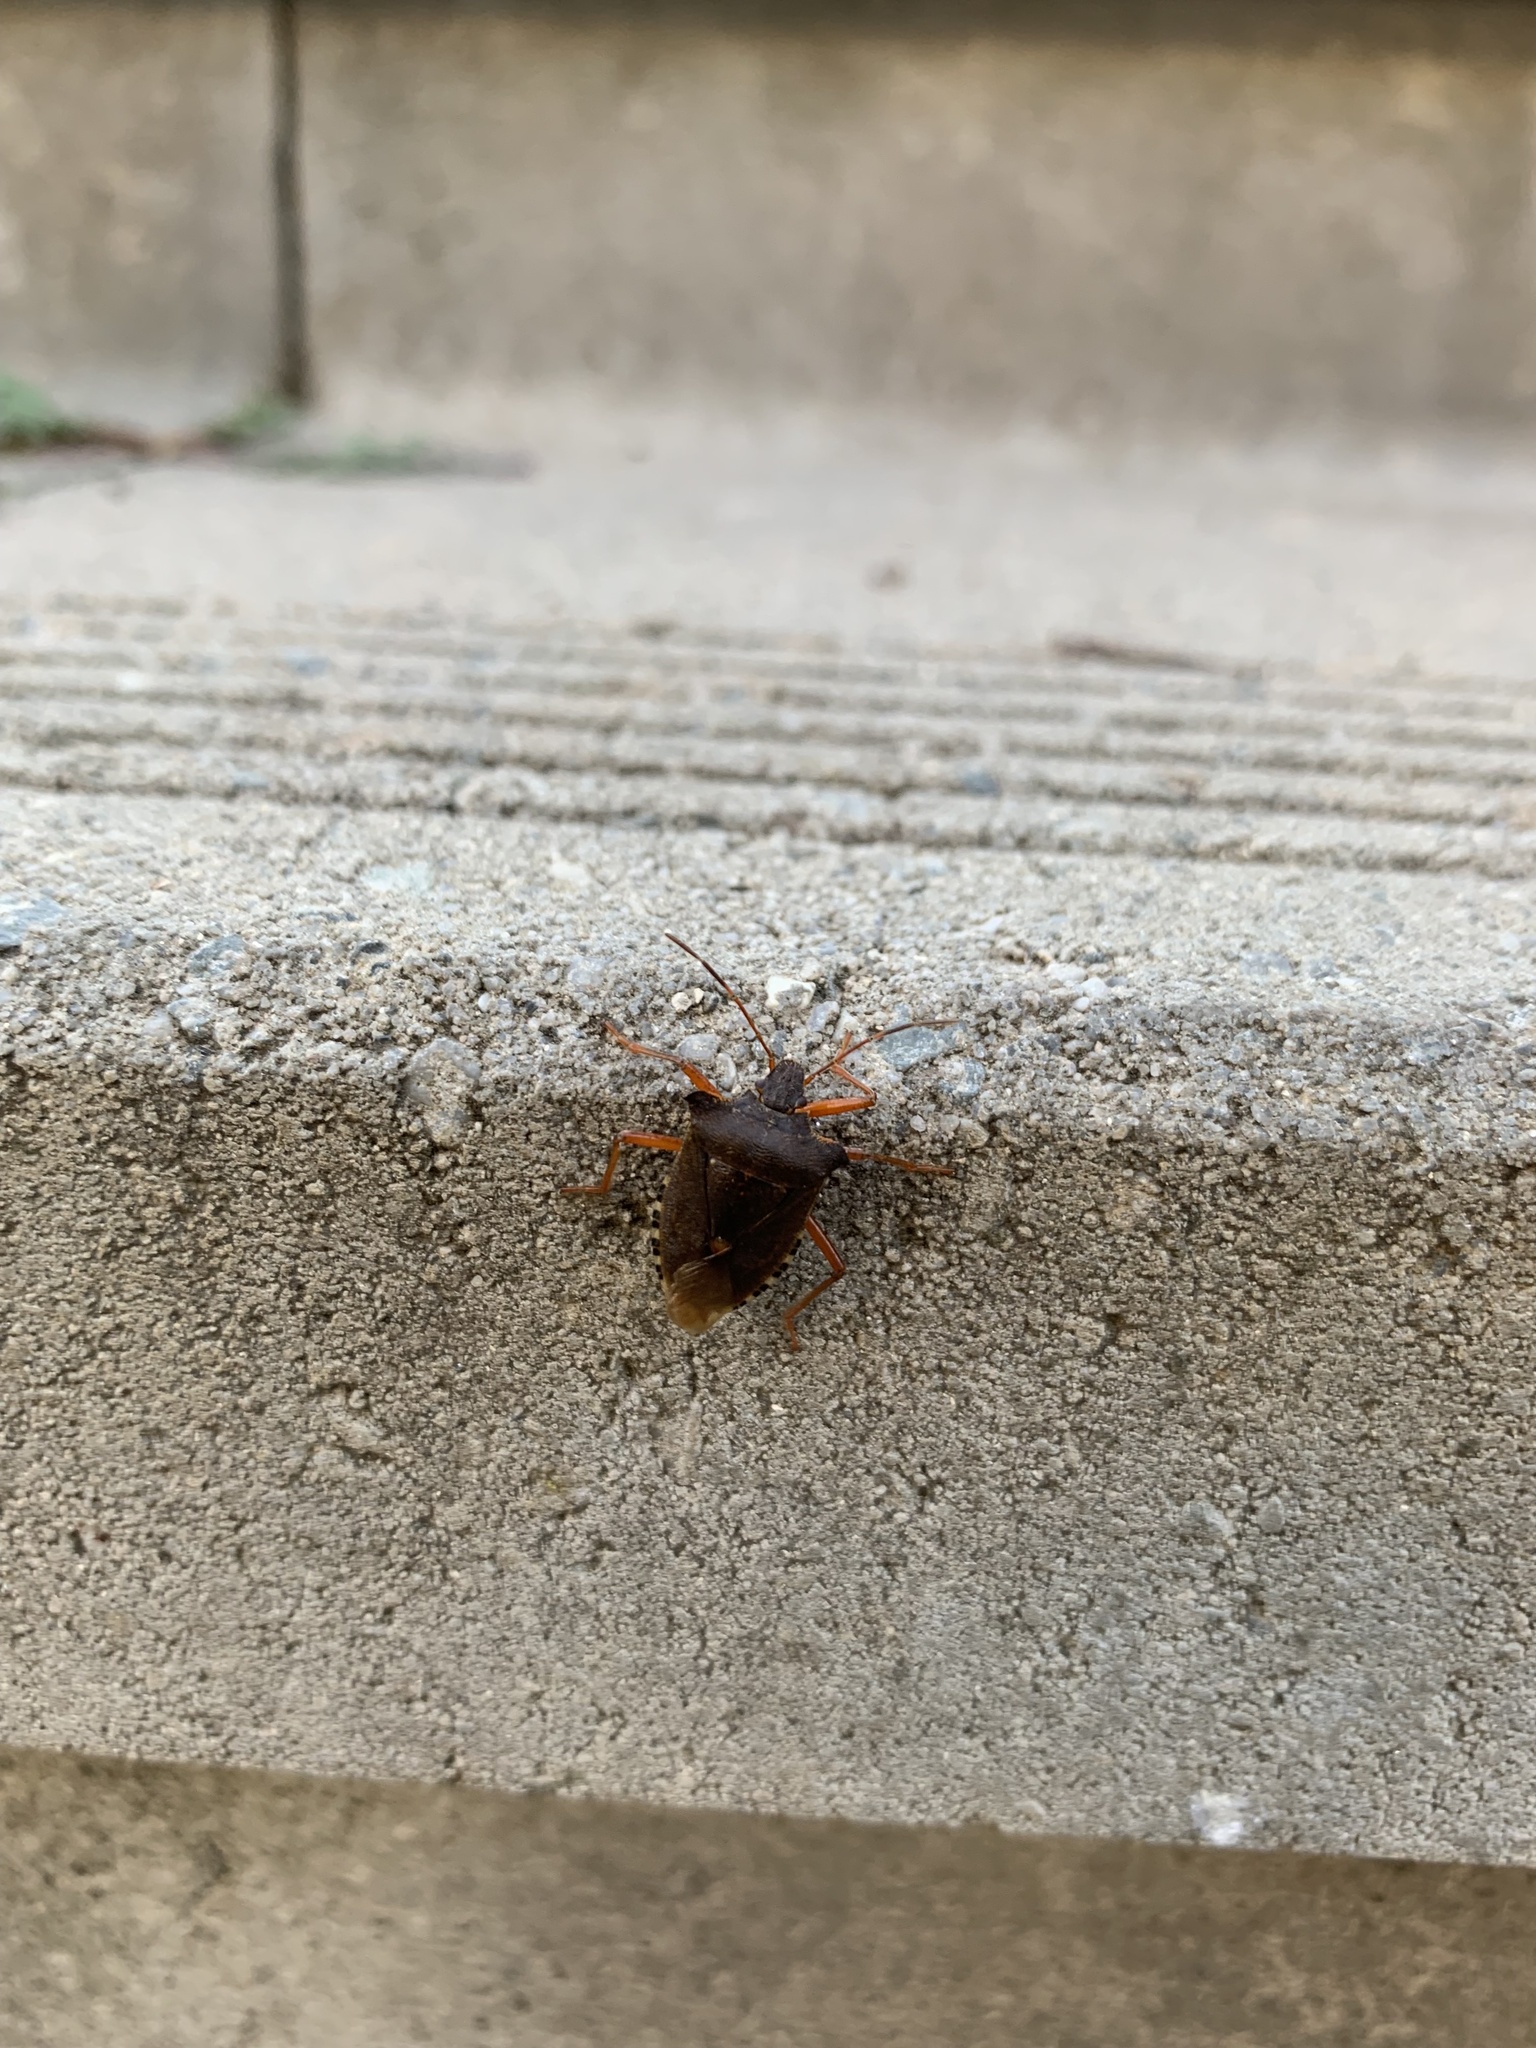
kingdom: Animalia
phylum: Arthropoda
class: Insecta
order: Hemiptera
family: Pentatomidae
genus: Pentatoma
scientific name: Pentatoma rufipes
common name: Forest bug
